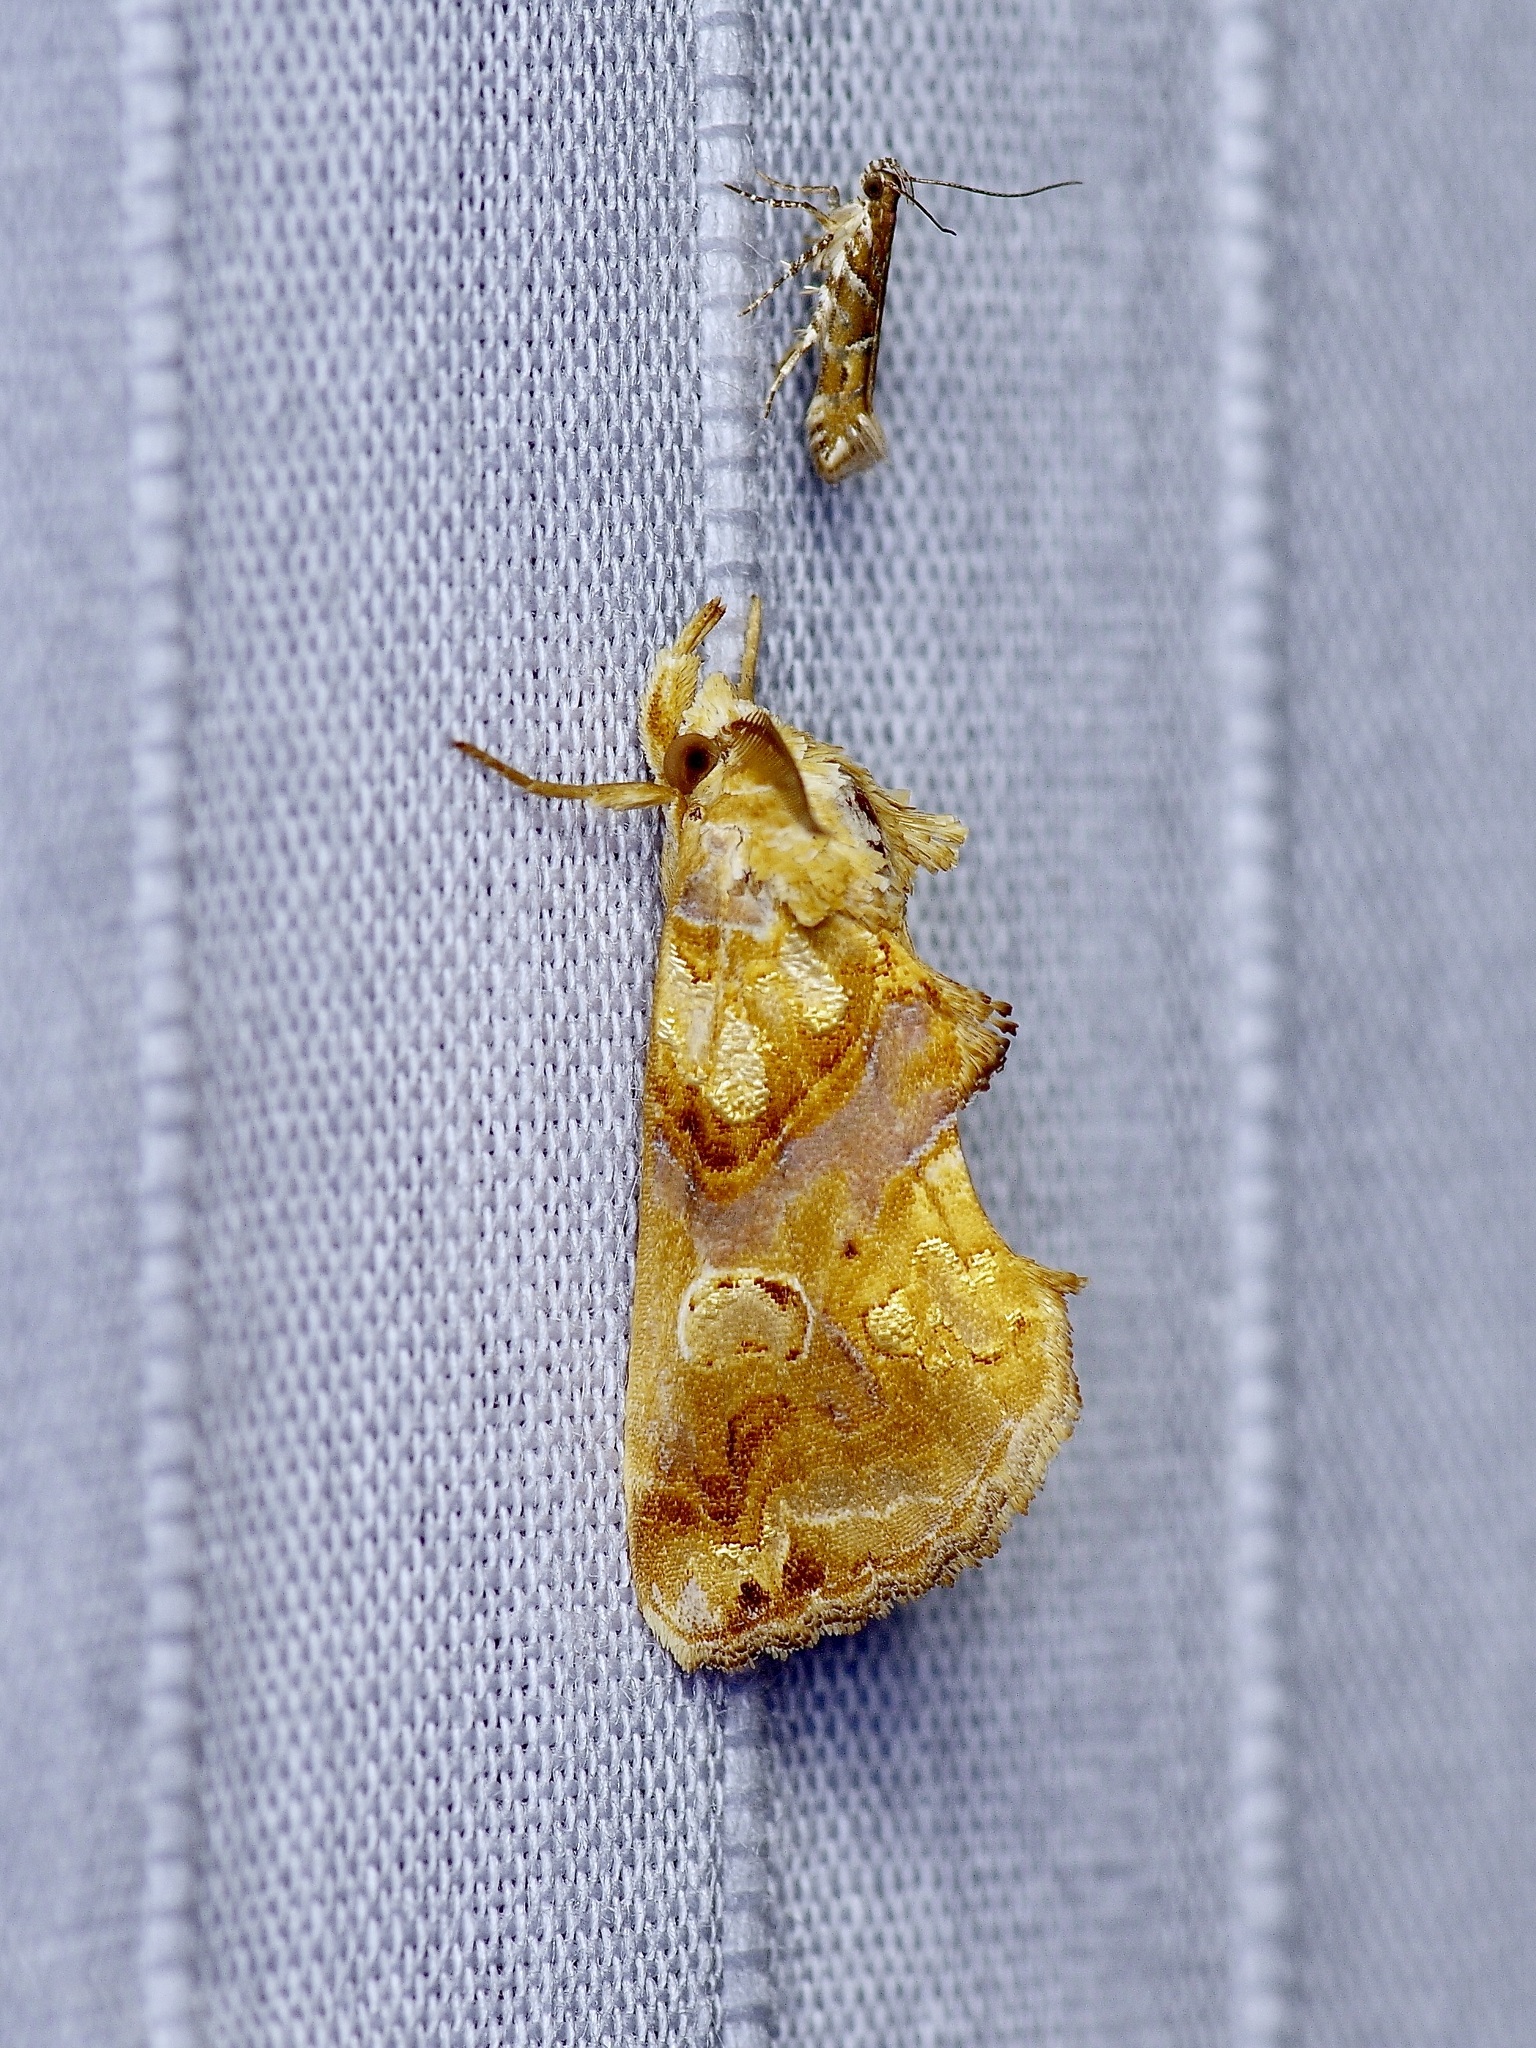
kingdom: Animalia
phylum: Arthropoda
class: Insecta
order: Lepidoptera
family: Erebidae
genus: Plusiodonta
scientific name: Plusiodonta compressipalpis
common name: Moonseed moth
